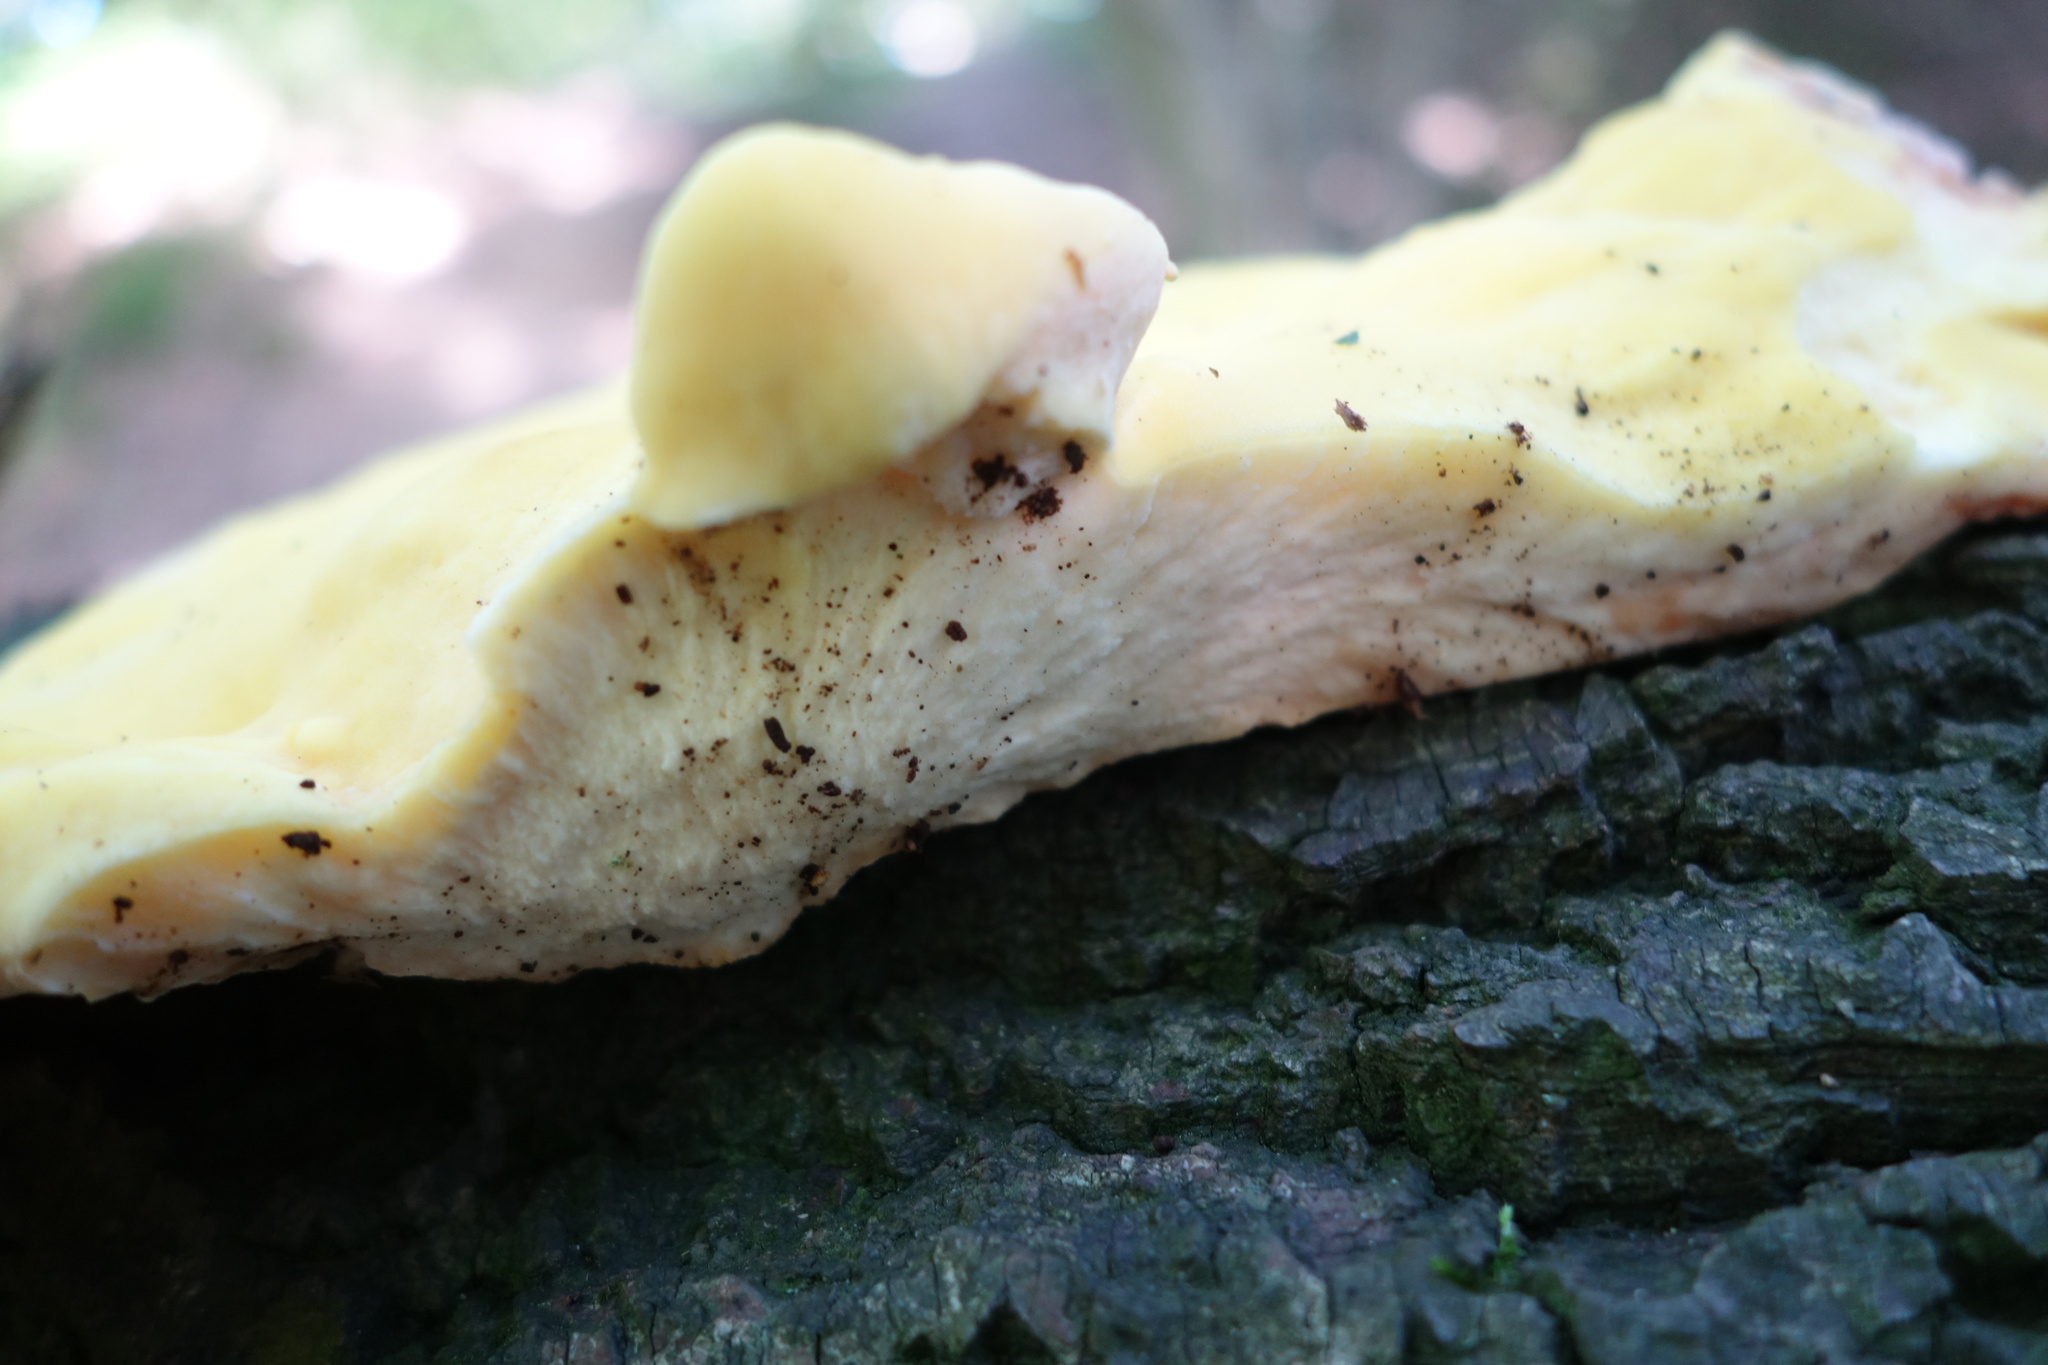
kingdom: Fungi
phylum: Basidiomycota
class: Agaricomycetes
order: Polyporales
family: Laetiporaceae
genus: Laetiporus
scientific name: Laetiporus sulphureus
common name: Chicken of the woods
